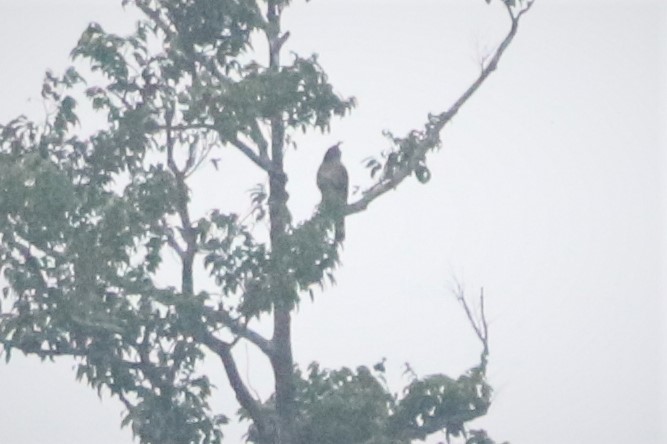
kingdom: Animalia
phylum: Chordata
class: Aves
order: Accipitriformes
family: Accipitridae
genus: Nisaetus
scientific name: Nisaetus nanus
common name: Wallace's hawk-eagle
